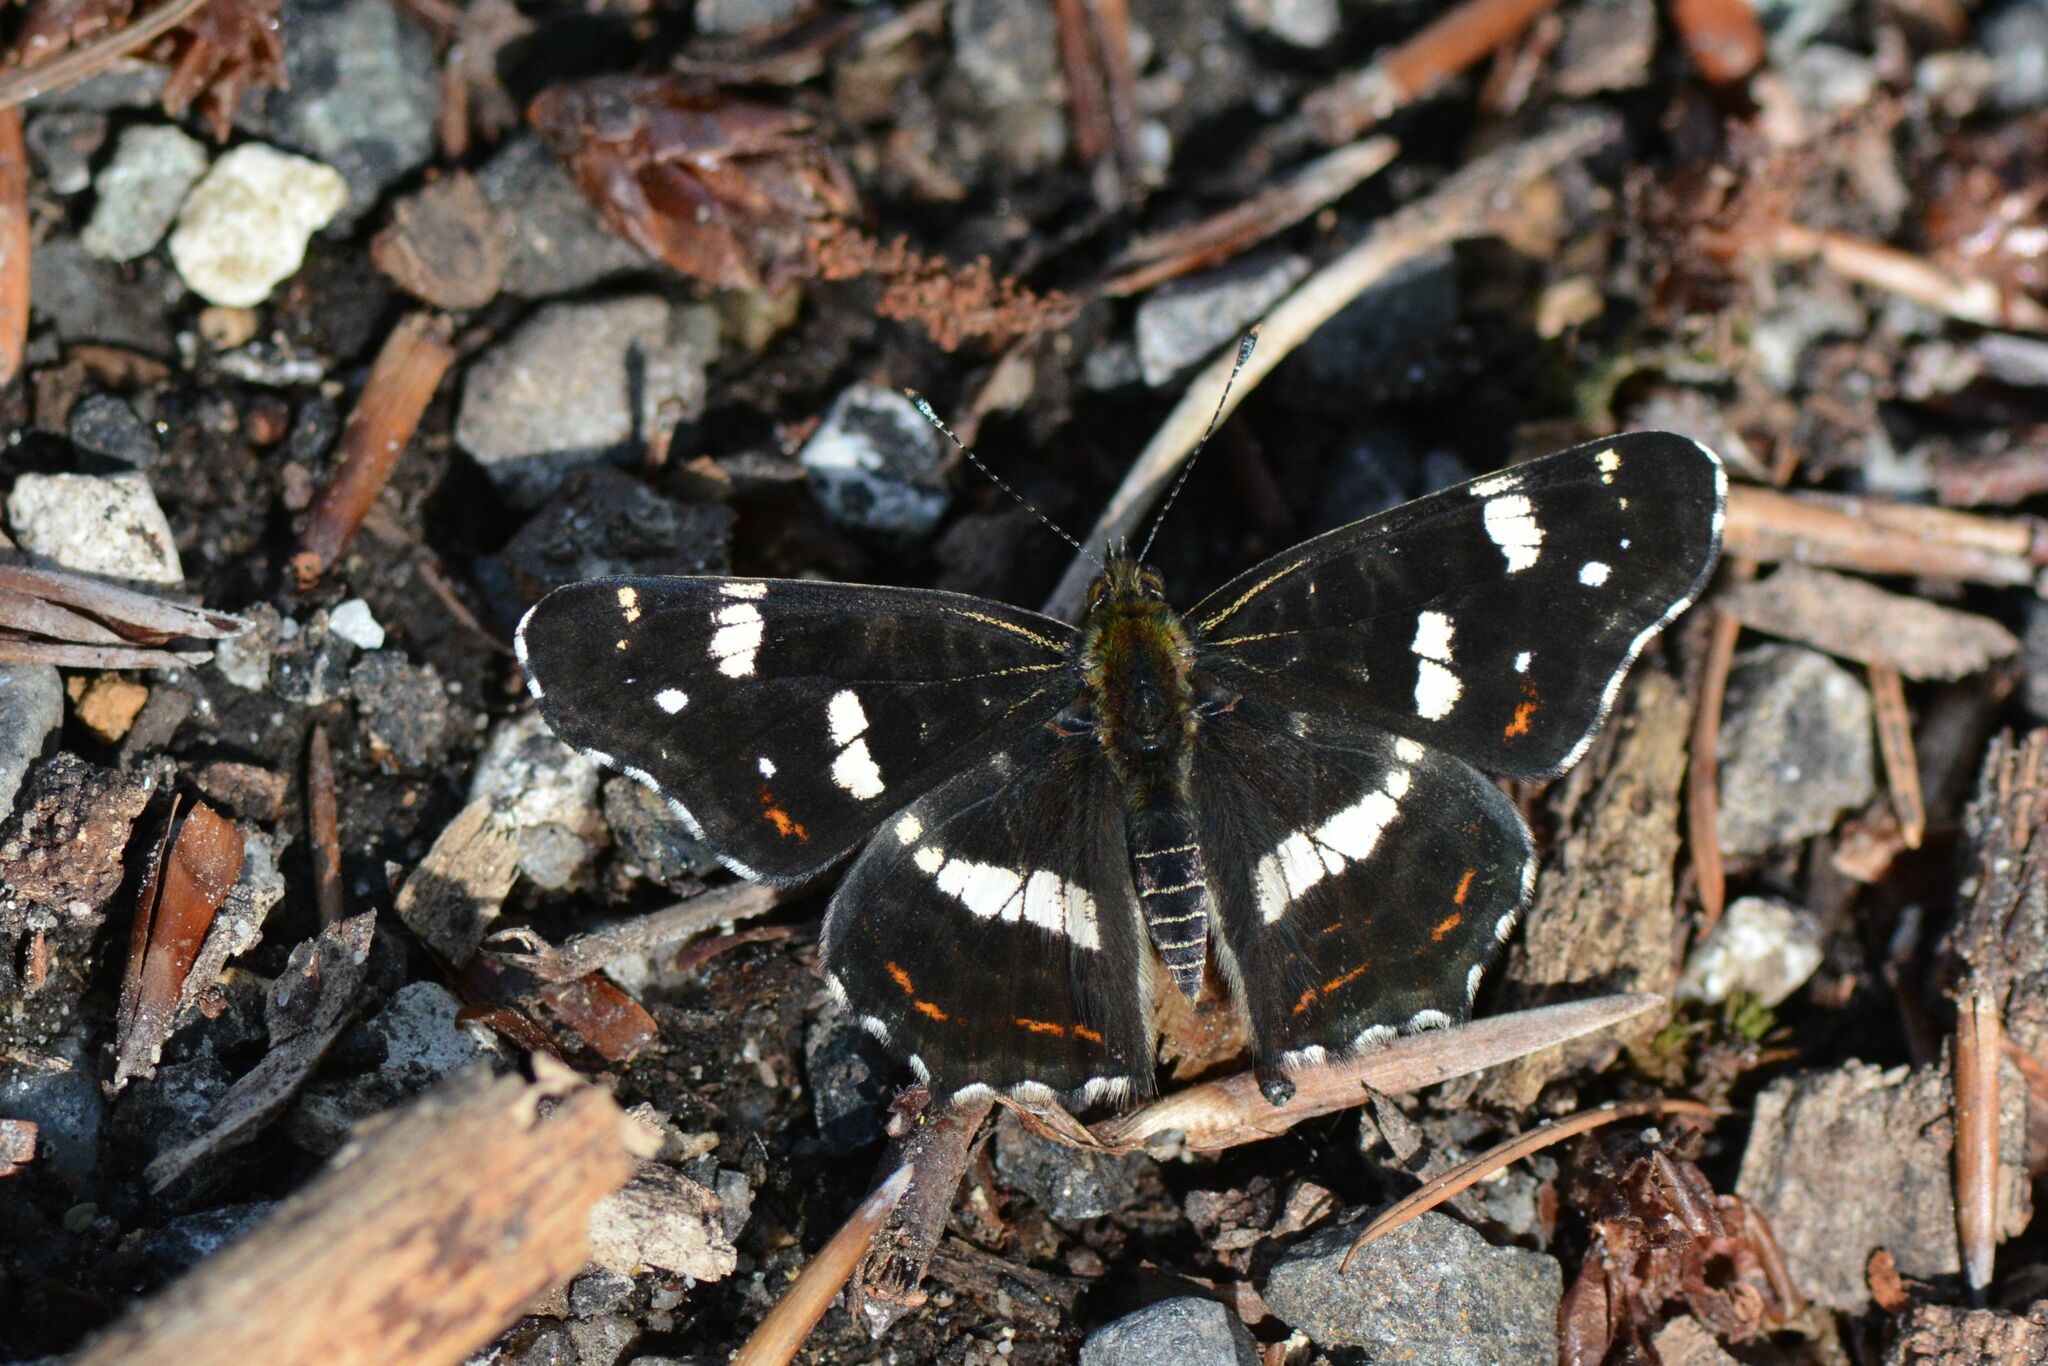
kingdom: Animalia
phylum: Arthropoda
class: Insecta
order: Lepidoptera
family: Nymphalidae
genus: Araschnia
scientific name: Araschnia levana
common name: Map butterfly
